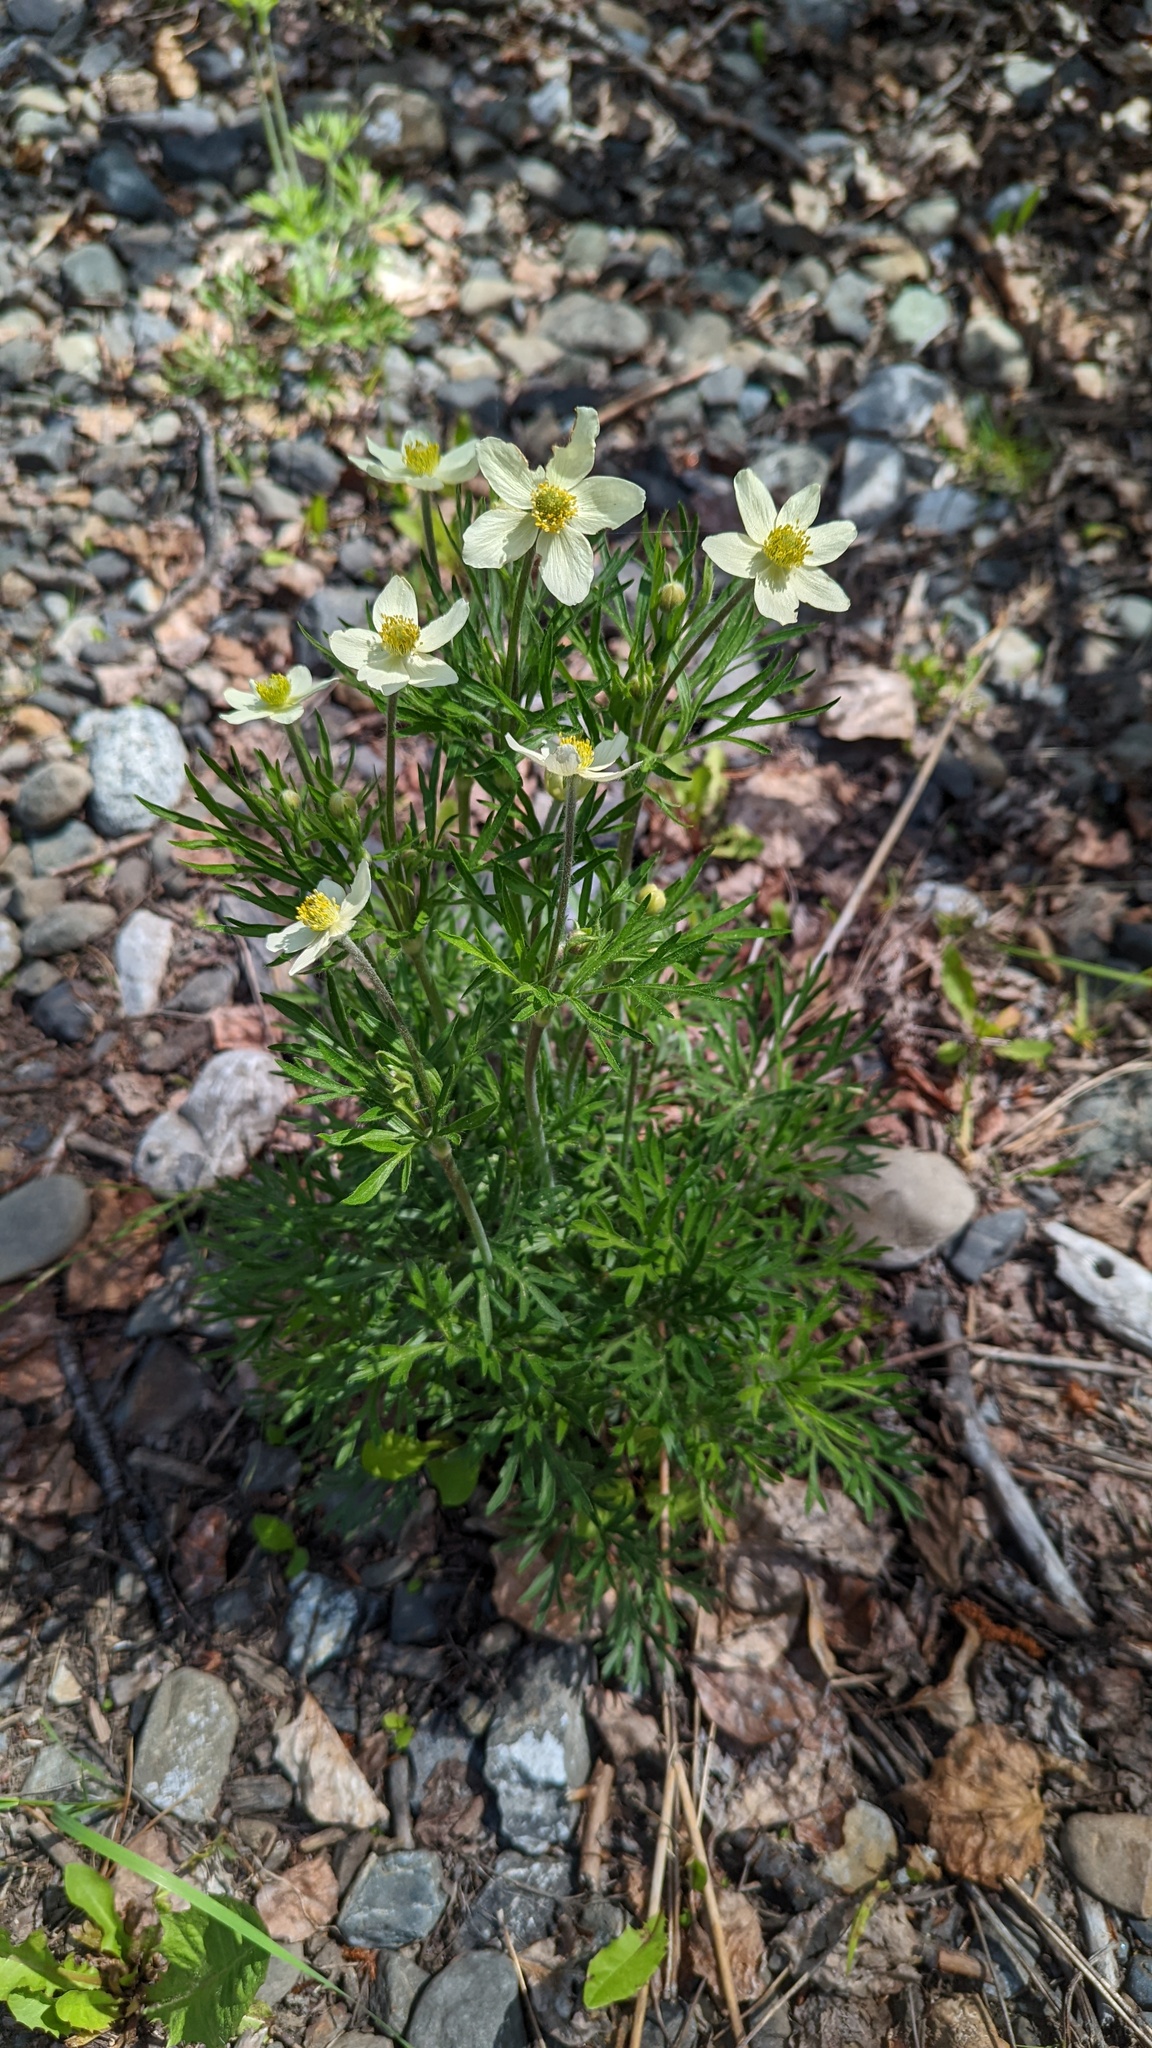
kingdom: Plantae
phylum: Tracheophyta
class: Magnoliopsida
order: Ranunculales
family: Ranunculaceae
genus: Anemone
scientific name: Anemone multifida
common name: Bird's-foot anemone
